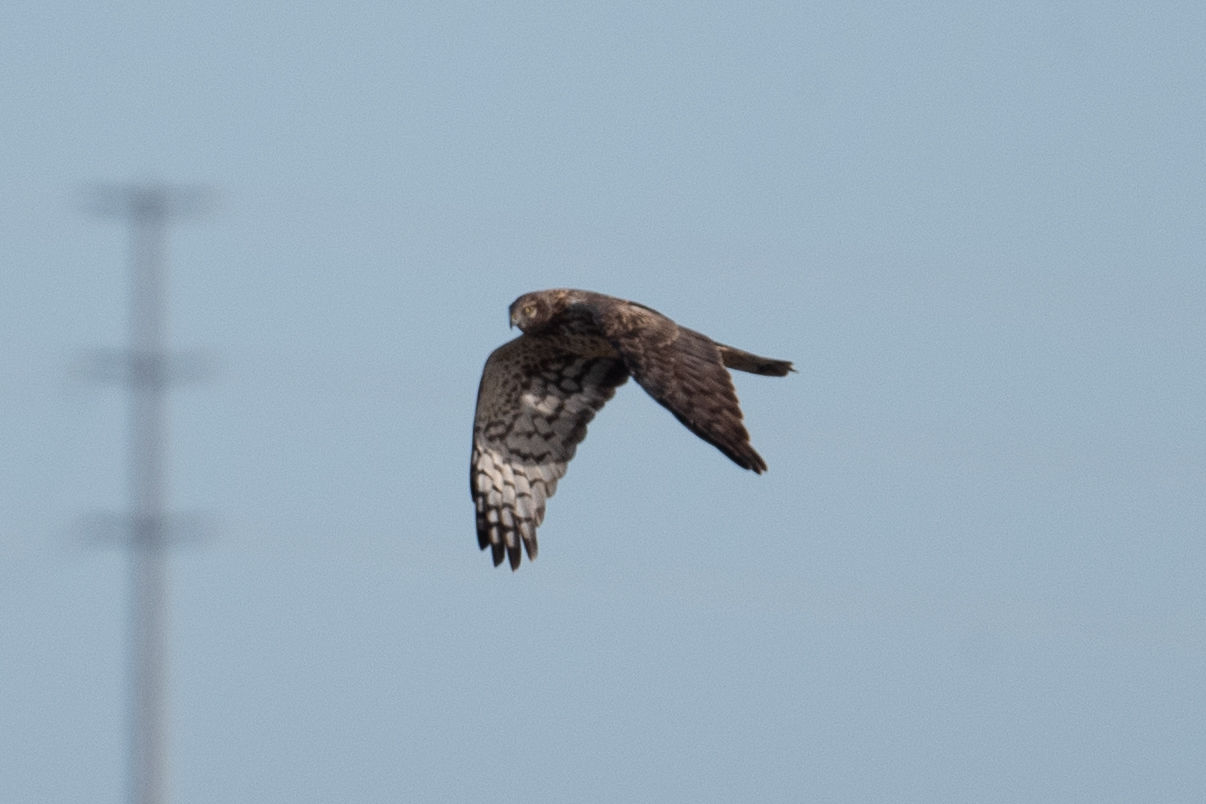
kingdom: Animalia
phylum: Chordata
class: Aves
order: Accipitriformes
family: Accipitridae
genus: Circus
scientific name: Circus cyaneus
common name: Hen harrier
